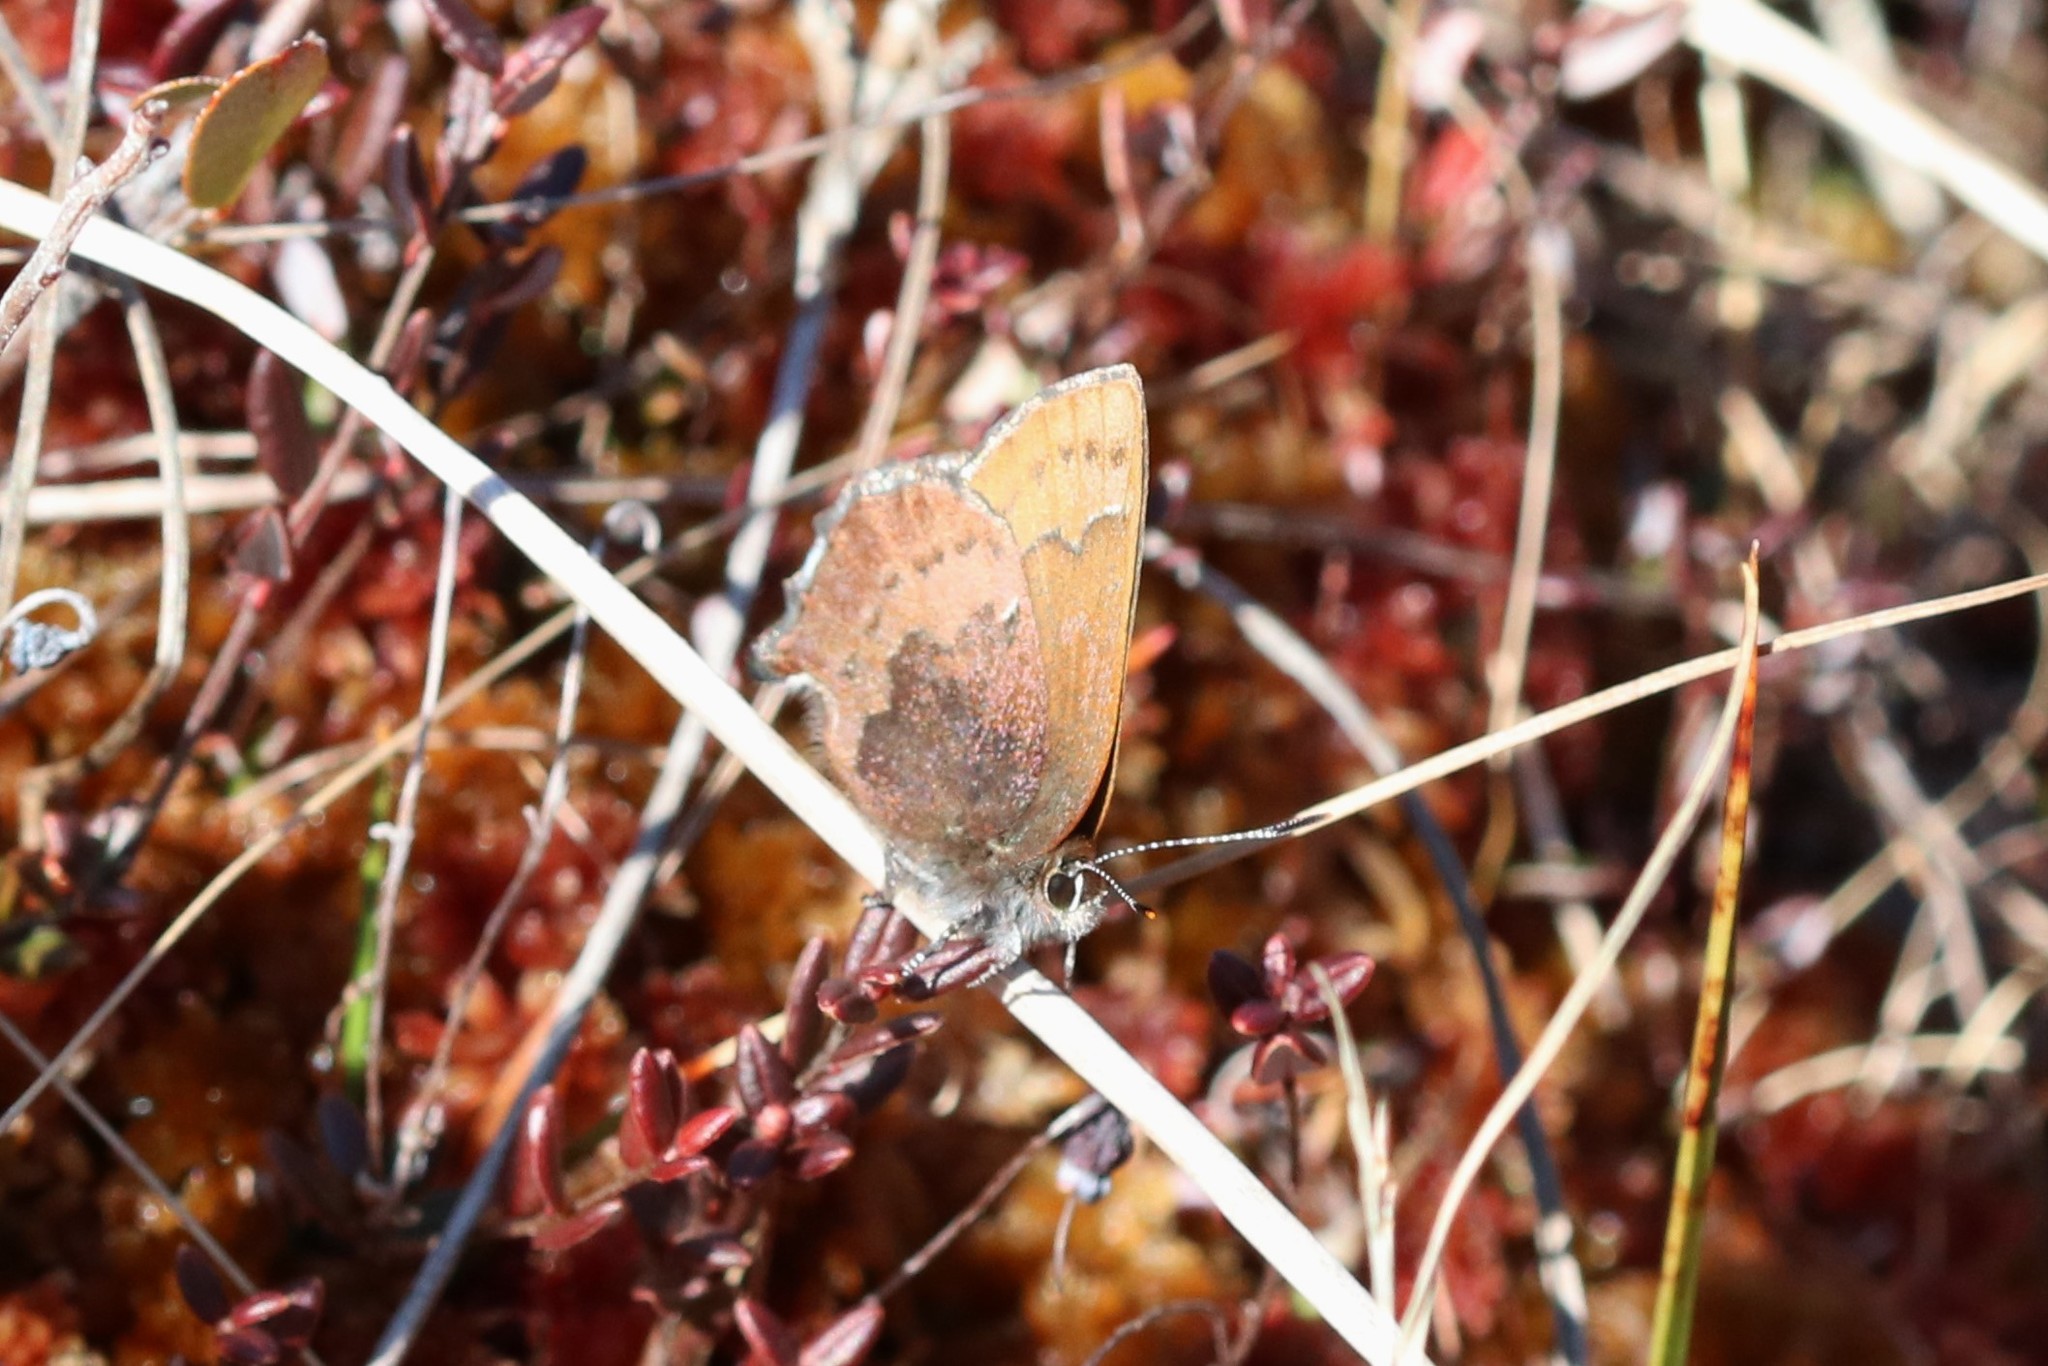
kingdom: Animalia
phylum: Arthropoda
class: Insecta
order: Lepidoptera
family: Lycaenidae
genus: Incisalia
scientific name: Incisalia irioides
